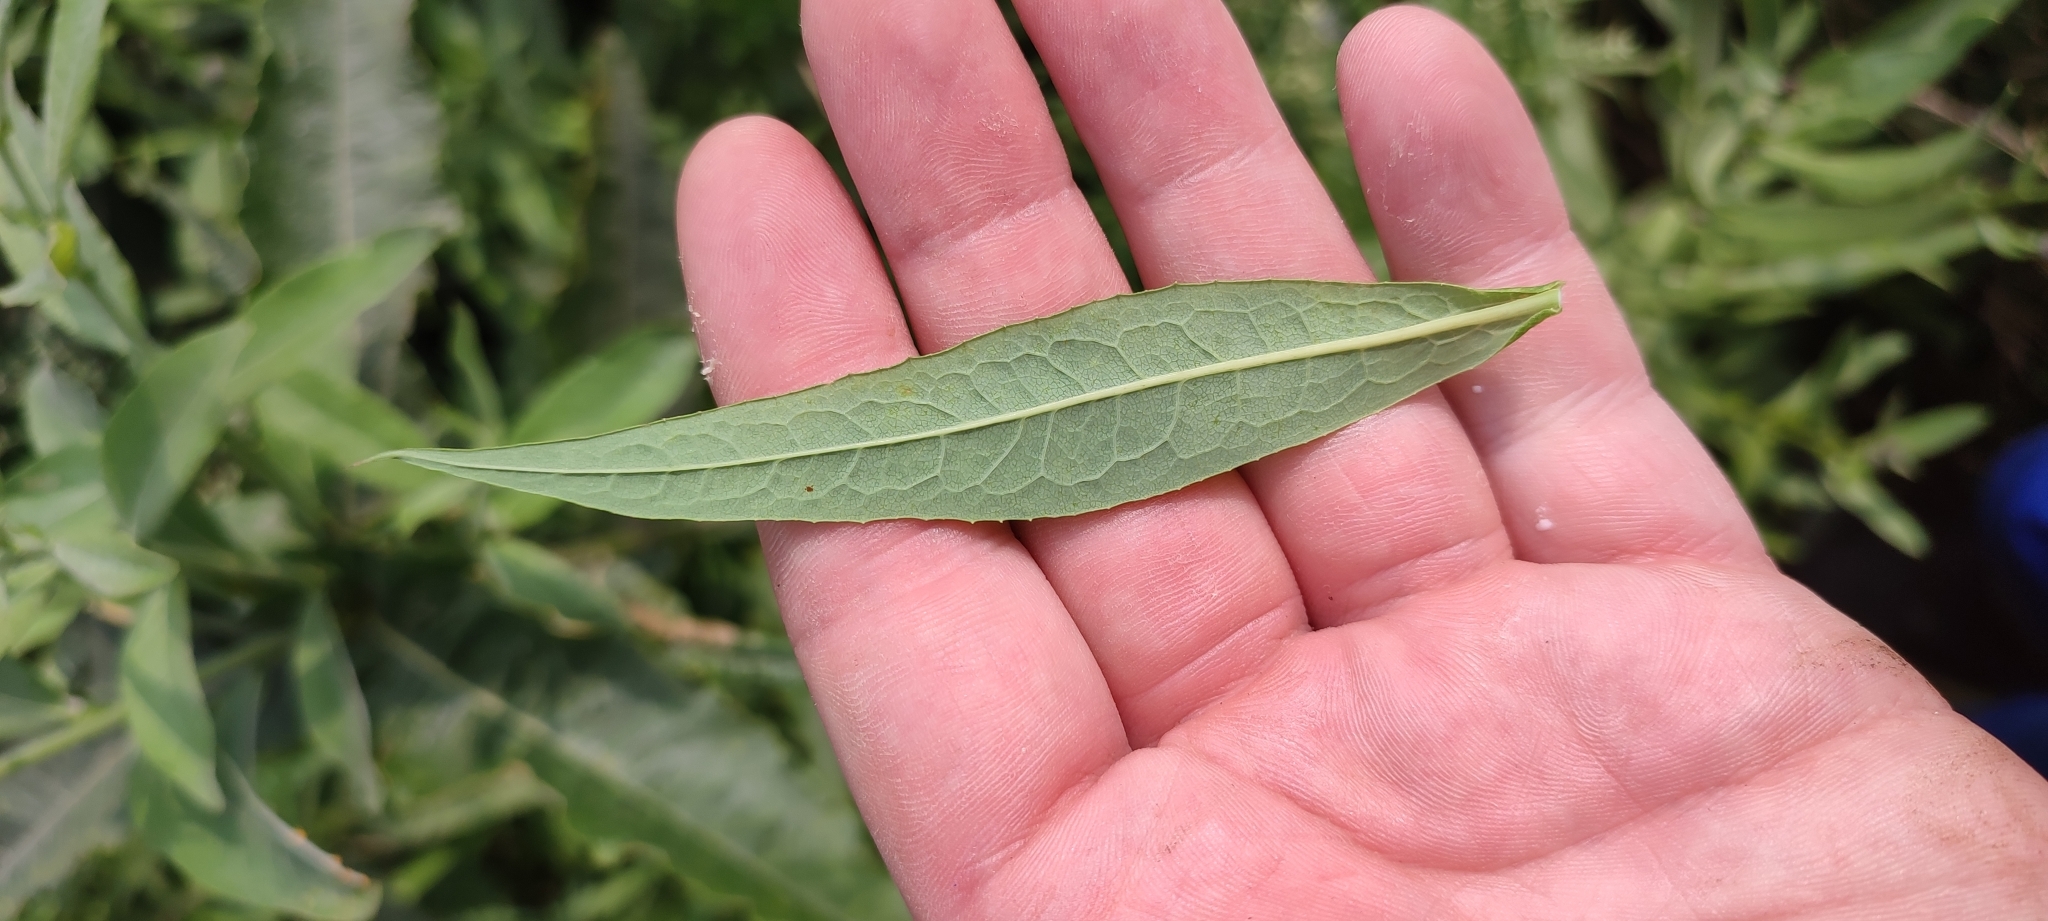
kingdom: Plantae
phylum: Tracheophyta
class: Magnoliopsida
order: Asterales
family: Asteraceae
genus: Lactuca
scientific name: Lactuca sibirica
